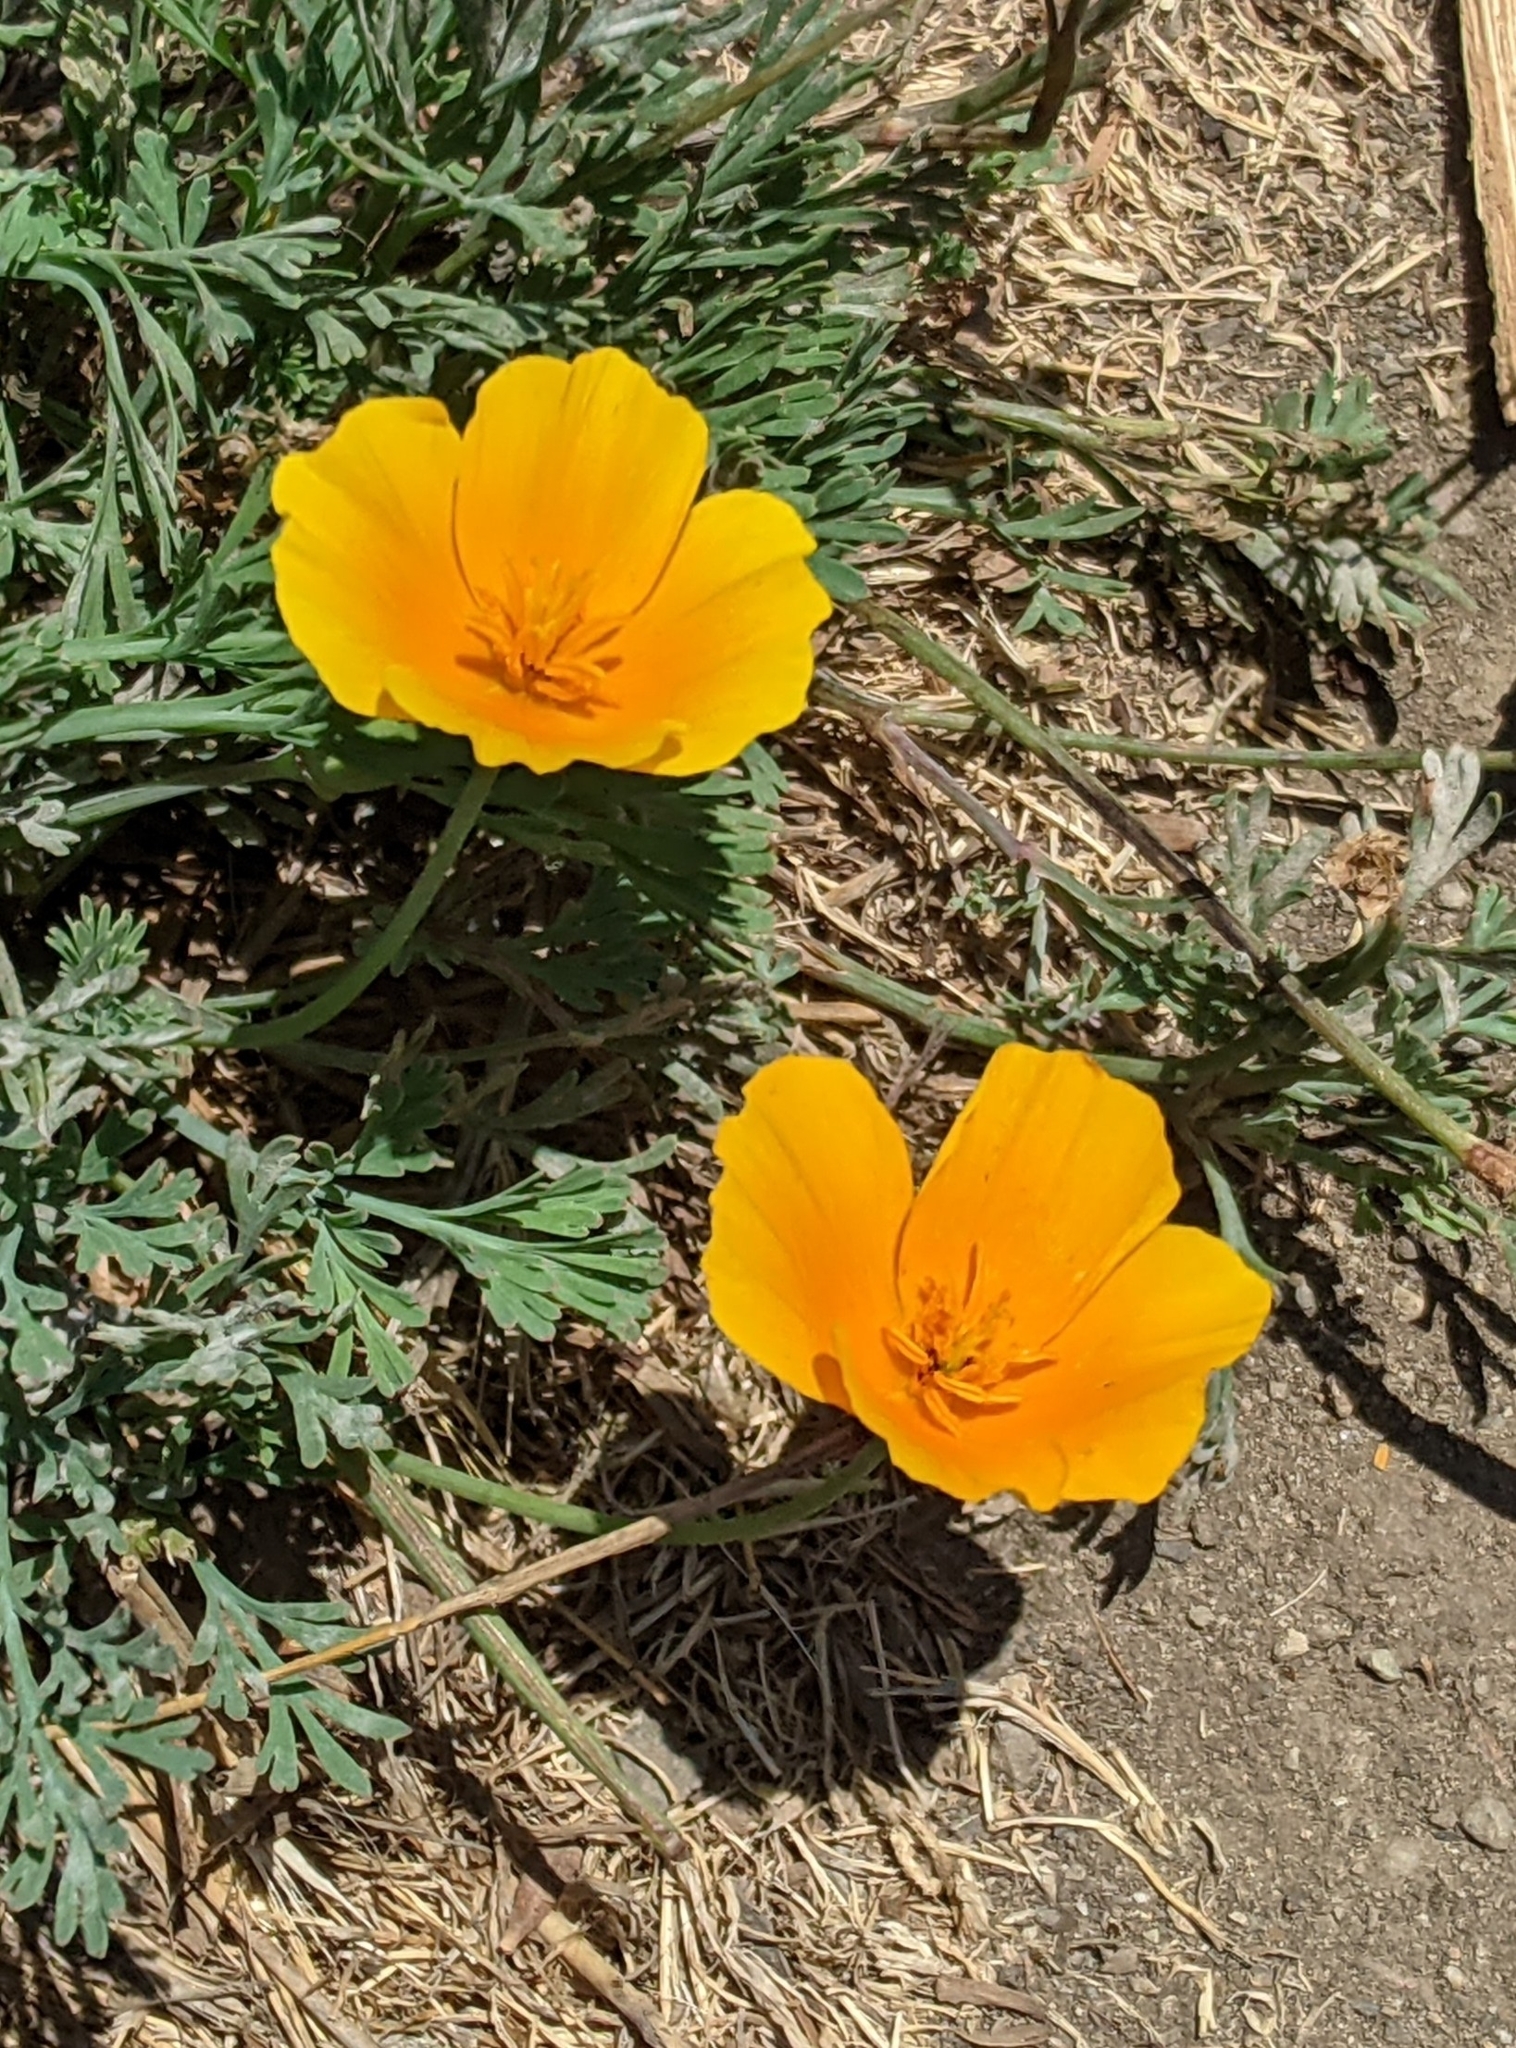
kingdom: Plantae
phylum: Tracheophyta
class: Magnoliopsida
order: Ranunculales
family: Papaveraceae
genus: Eschscholzia
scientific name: Eschscholzia californica
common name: California poppy
